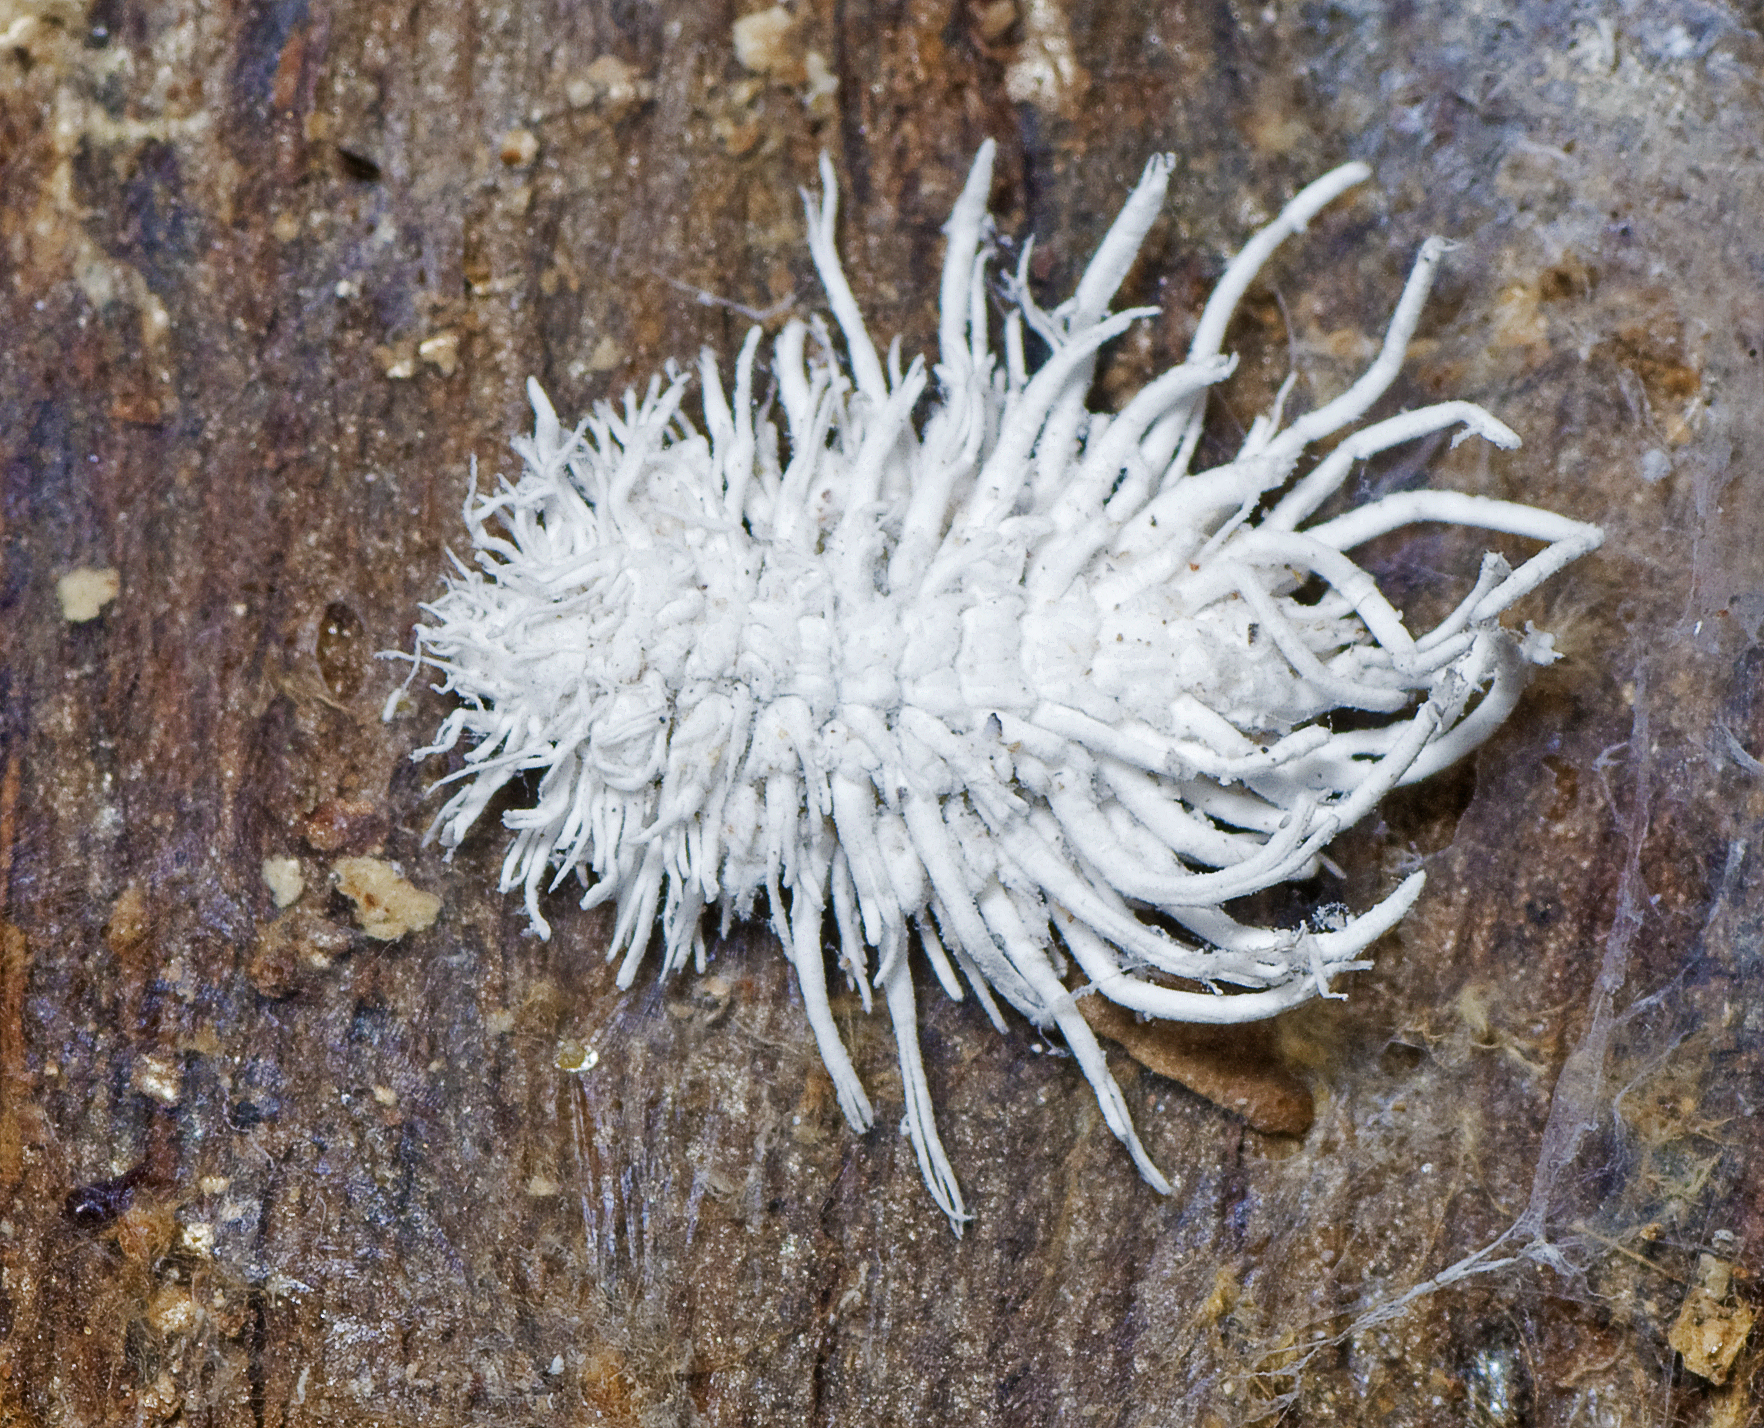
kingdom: Animalia
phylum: Arthropoda
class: Insecta
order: Coleoptera
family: Coccinellidae
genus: Cryptolaemus
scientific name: Cryptolaemus montrouzieri
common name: Mealybug destroyer
